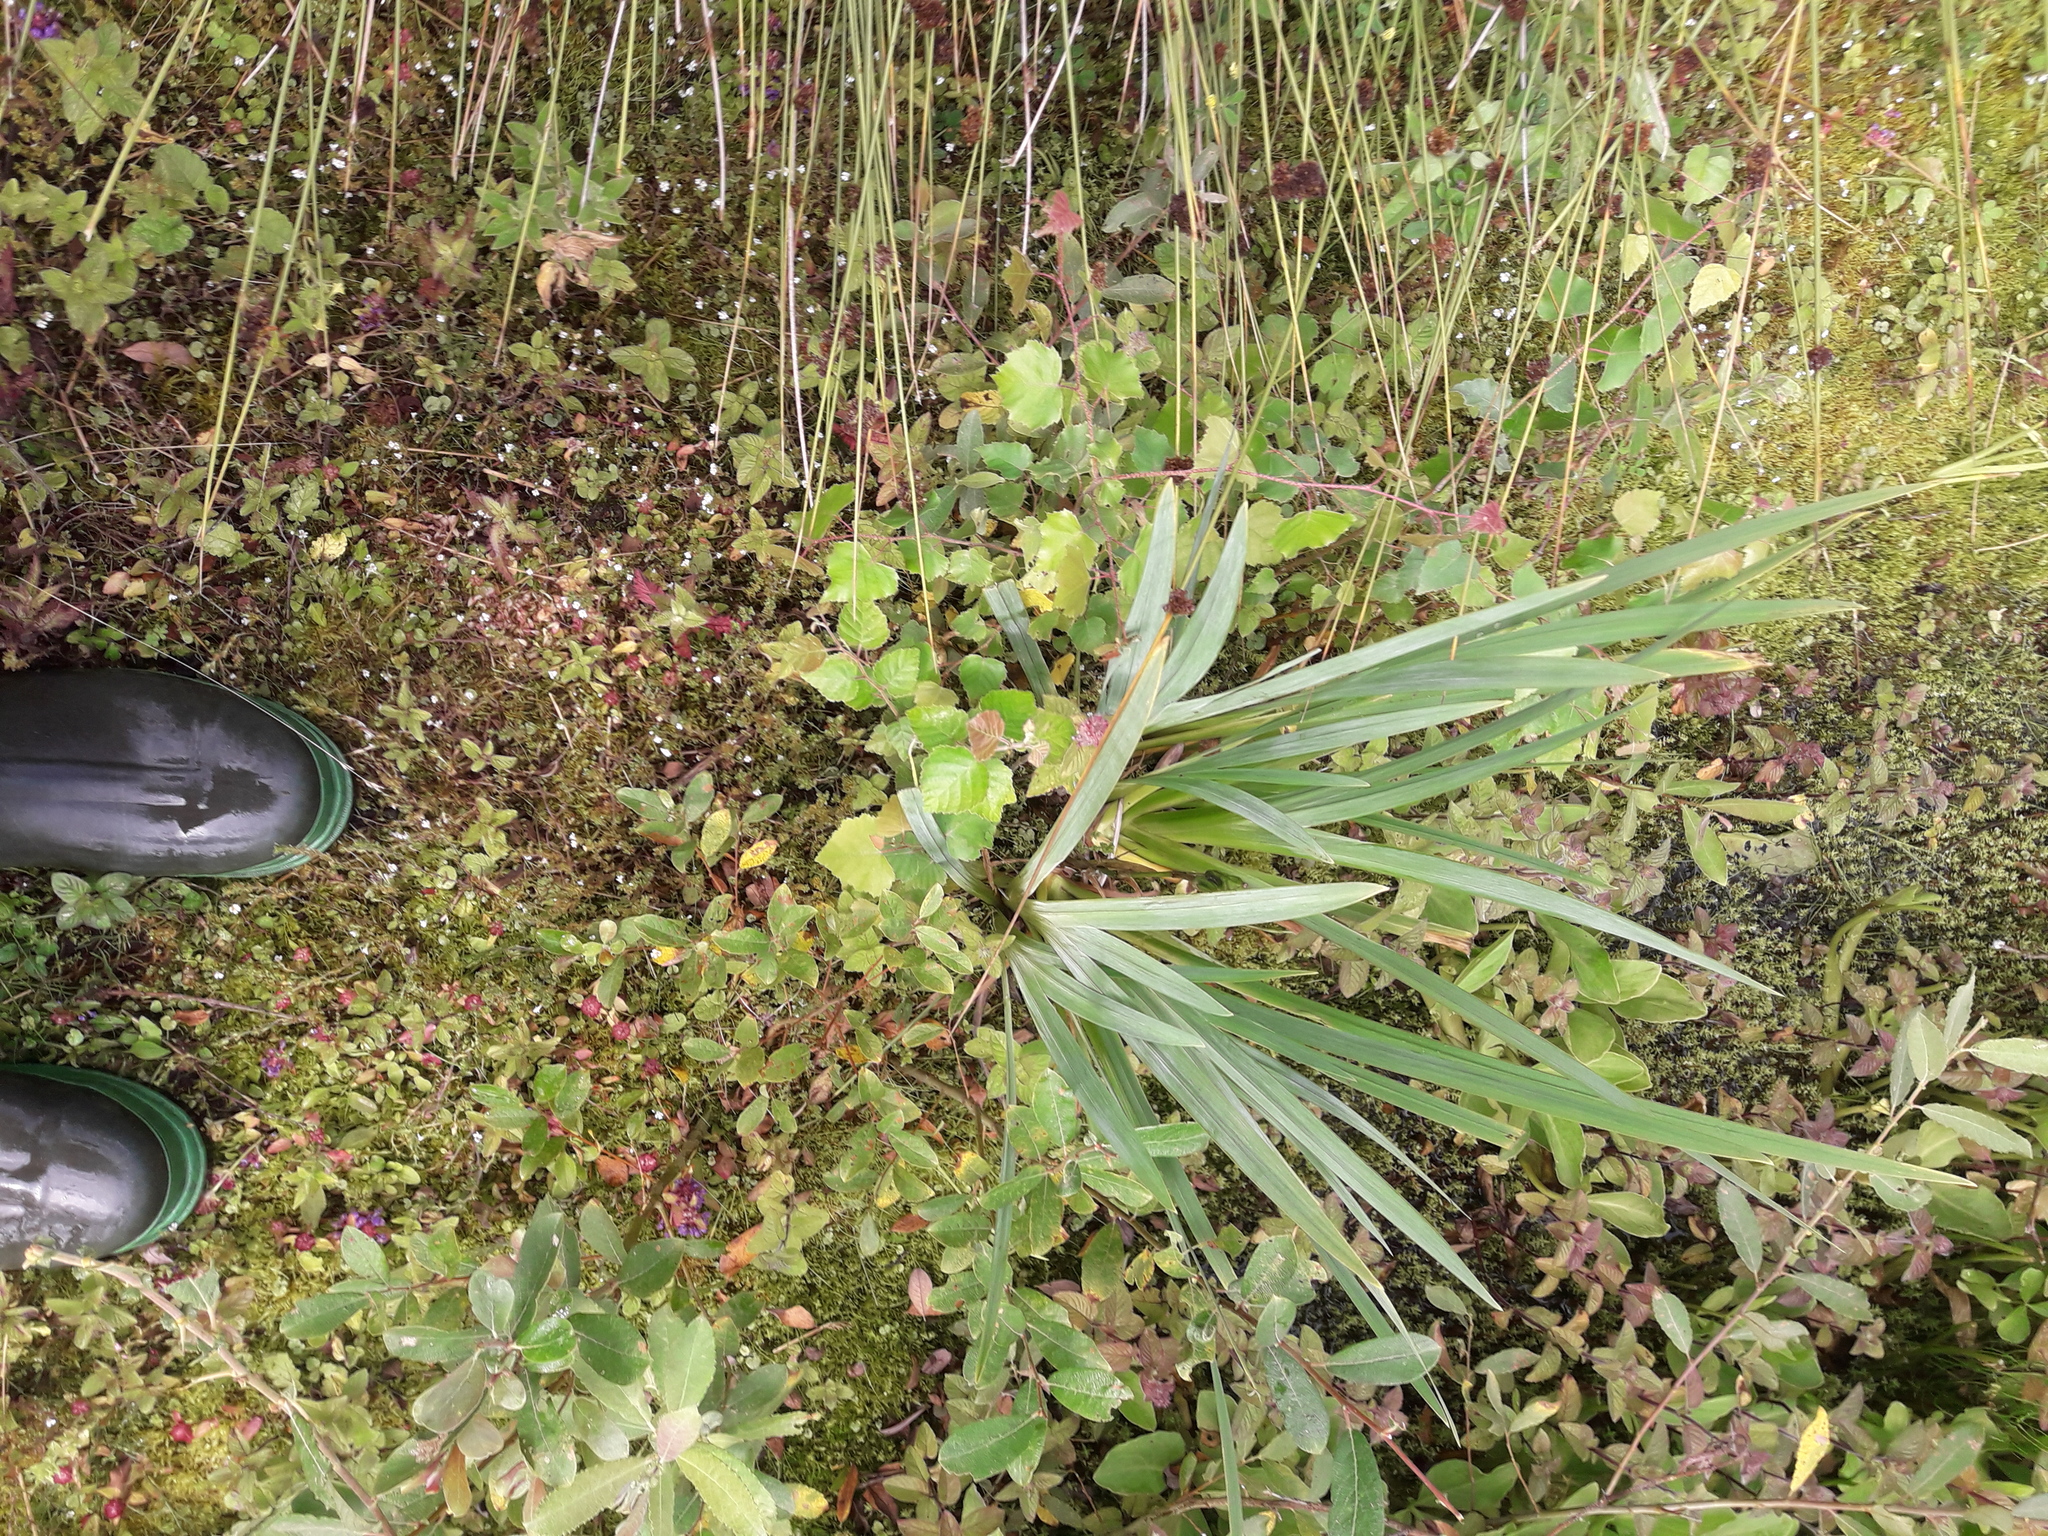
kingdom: Plantae
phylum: Tracheophyta
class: Liliopsida
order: Asparagales
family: Iridaceae
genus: Iris
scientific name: Iris pseudacorus
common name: Yellow flag
